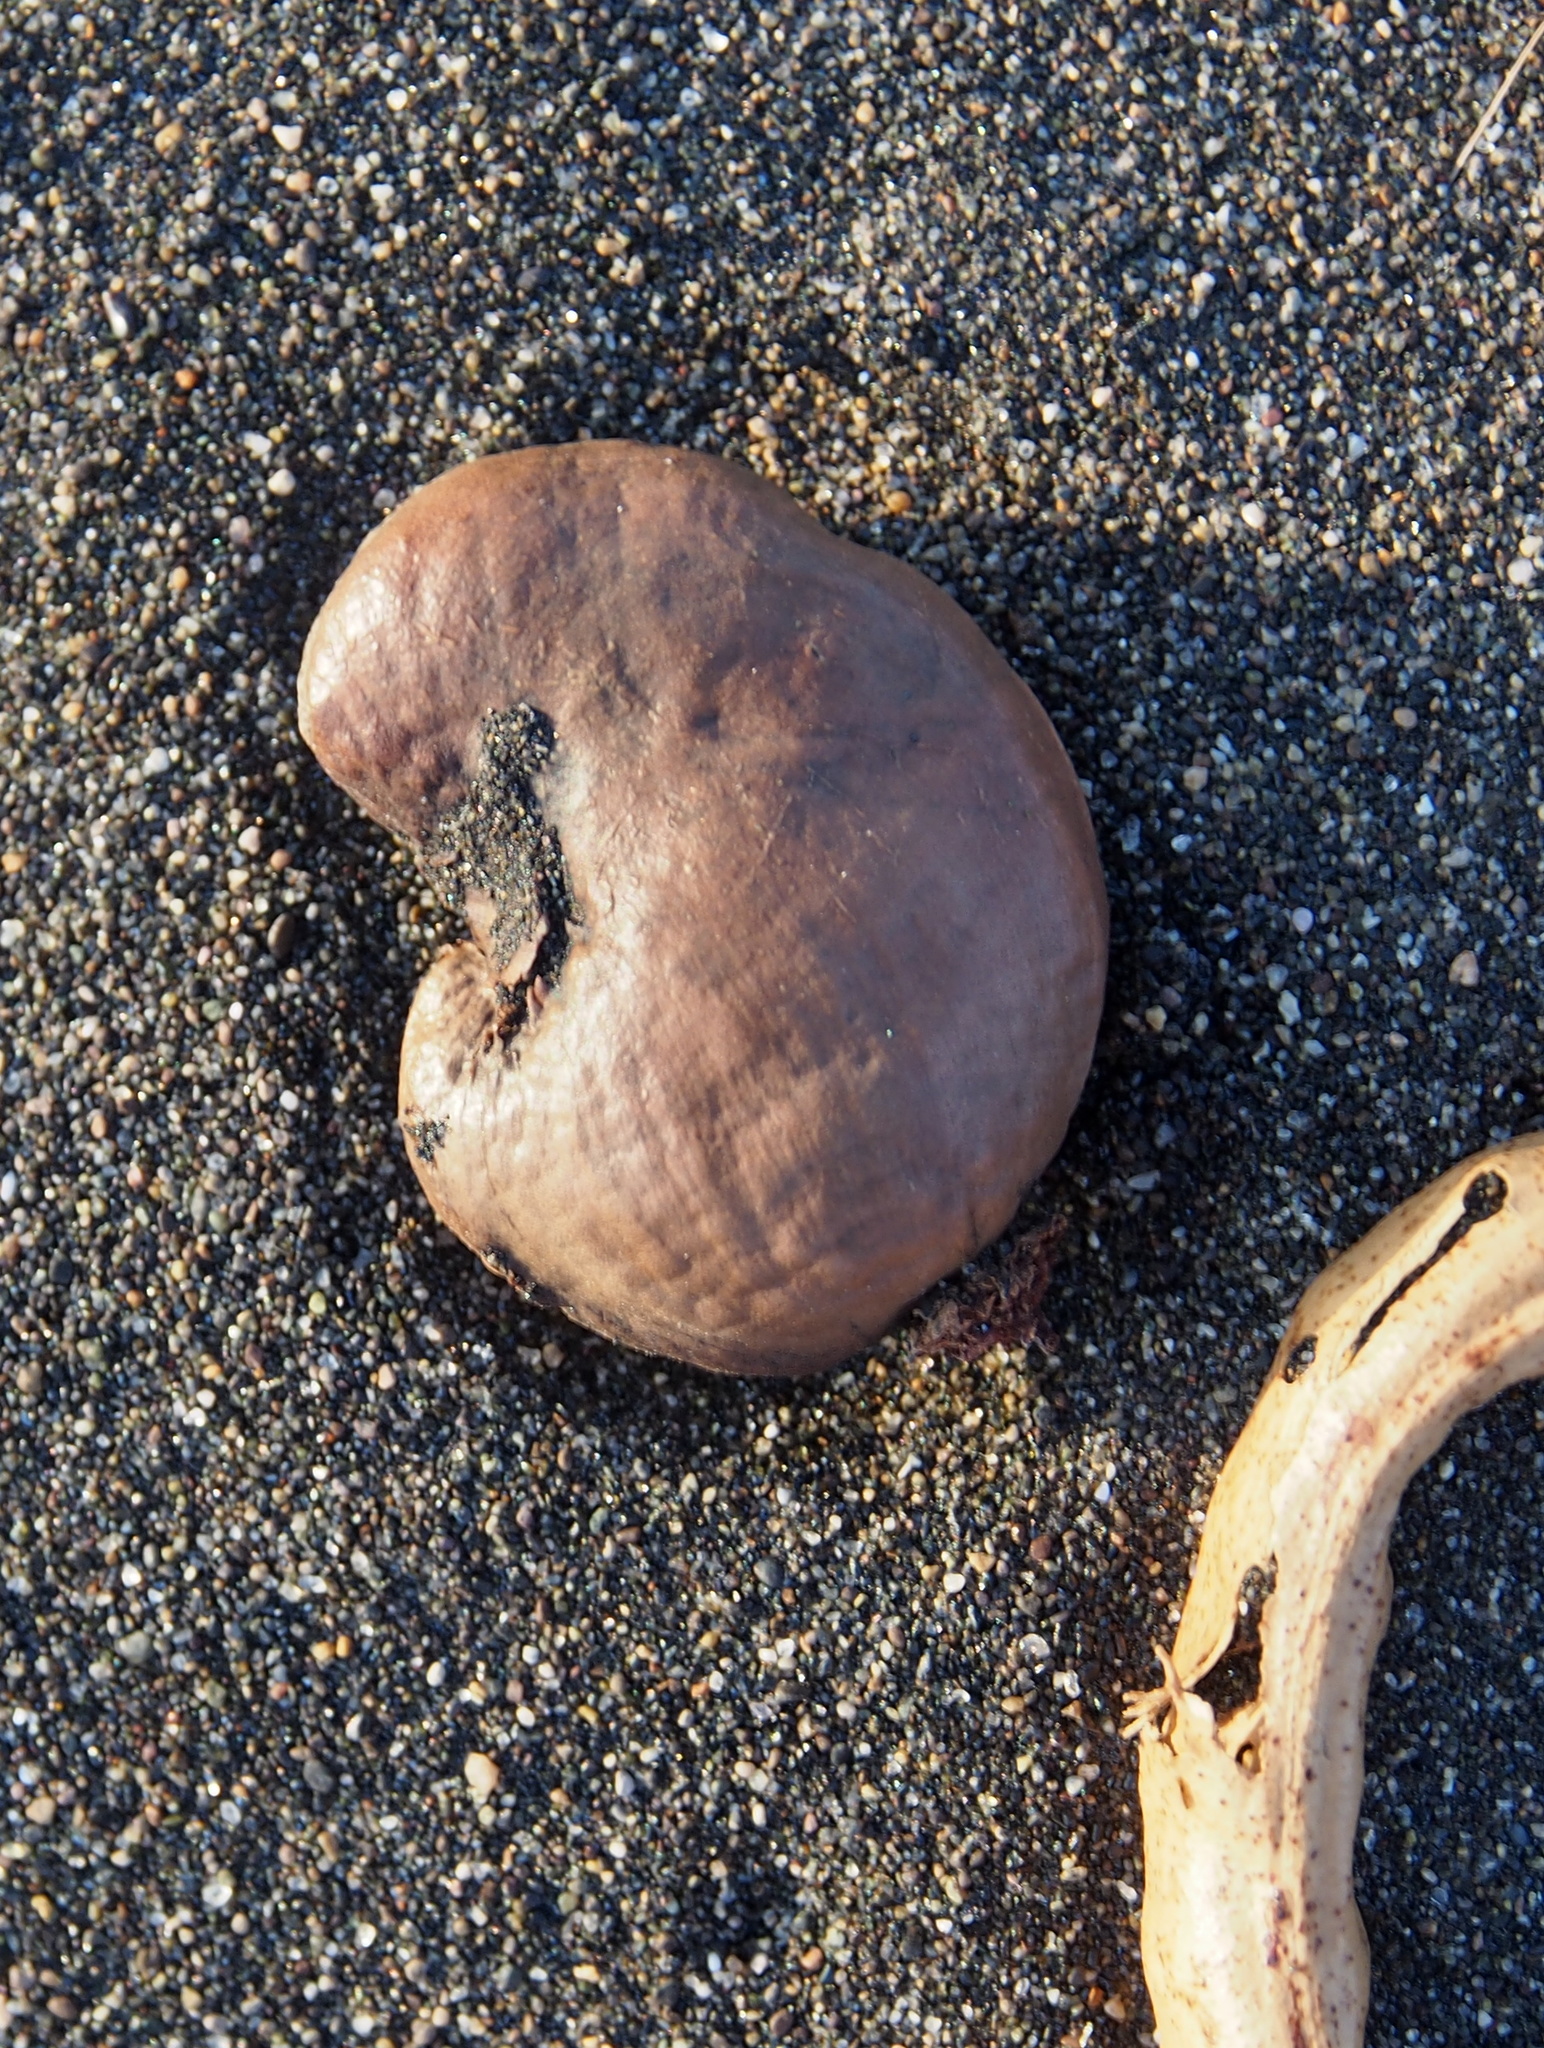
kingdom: Plantae
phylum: Tracheophyta
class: Magnoliopsida
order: Sapindales
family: Anacardiaceae
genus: Anacardium
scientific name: Anacardium occidentale
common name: Cashew
